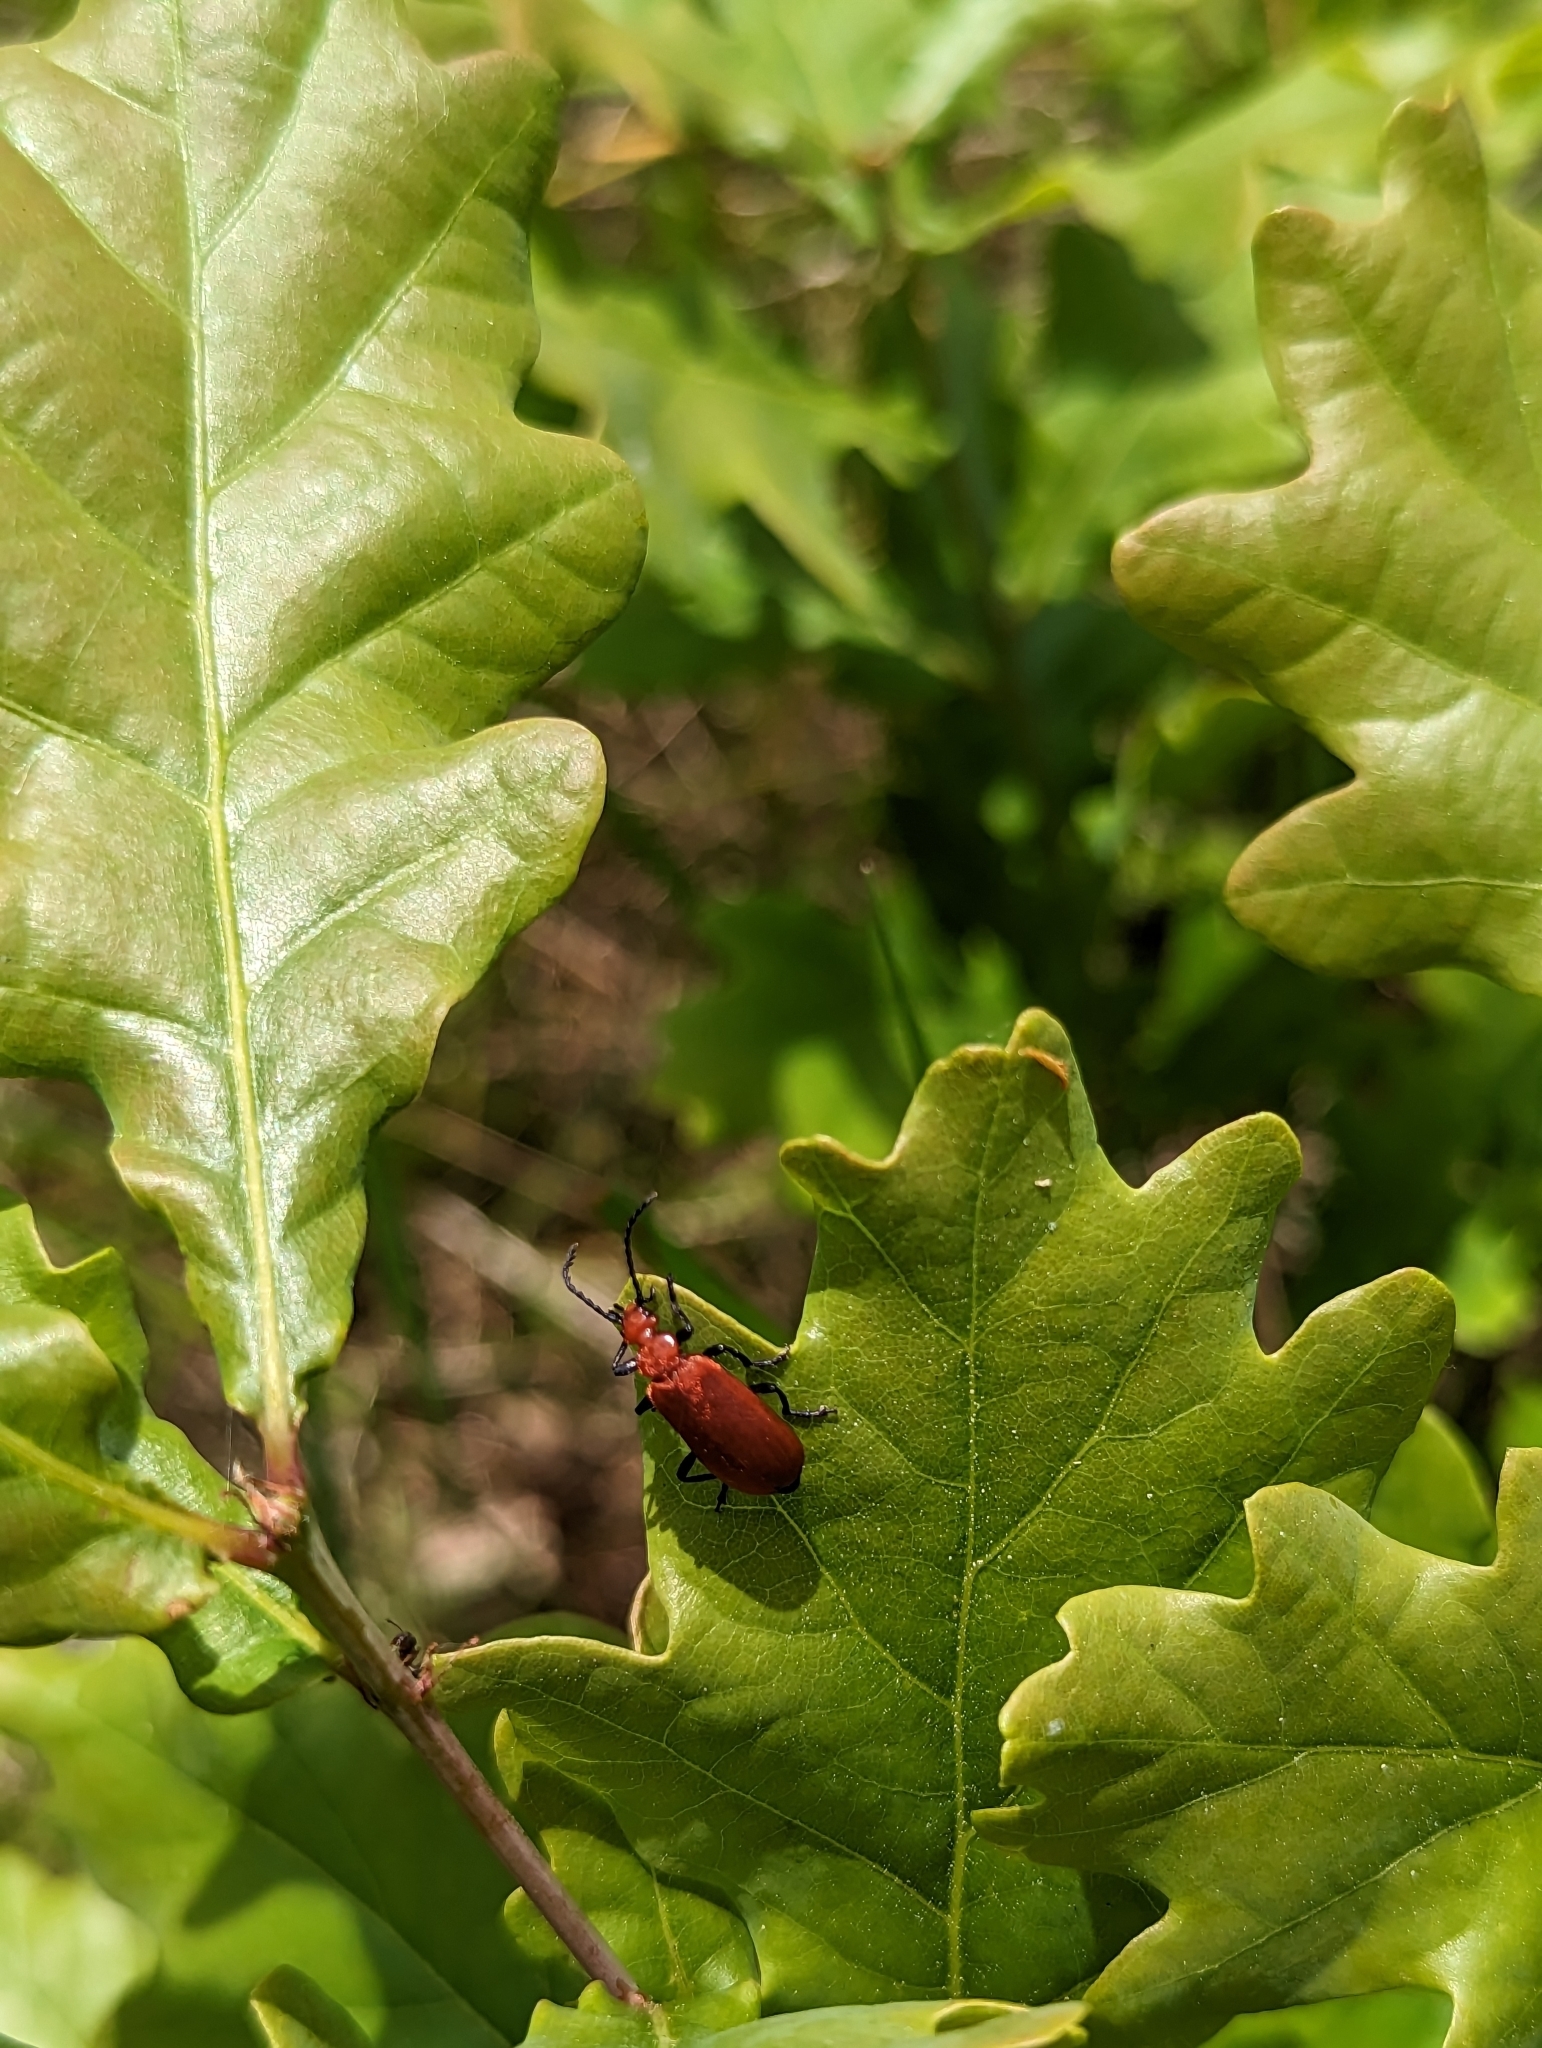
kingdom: Animalia
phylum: Arthropoda
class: Insecta
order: Coleoptera
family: Pyrochroidae
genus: Pyrochroa
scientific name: Pyrochroa serraticornis
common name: Red-headed cardinal beetle
